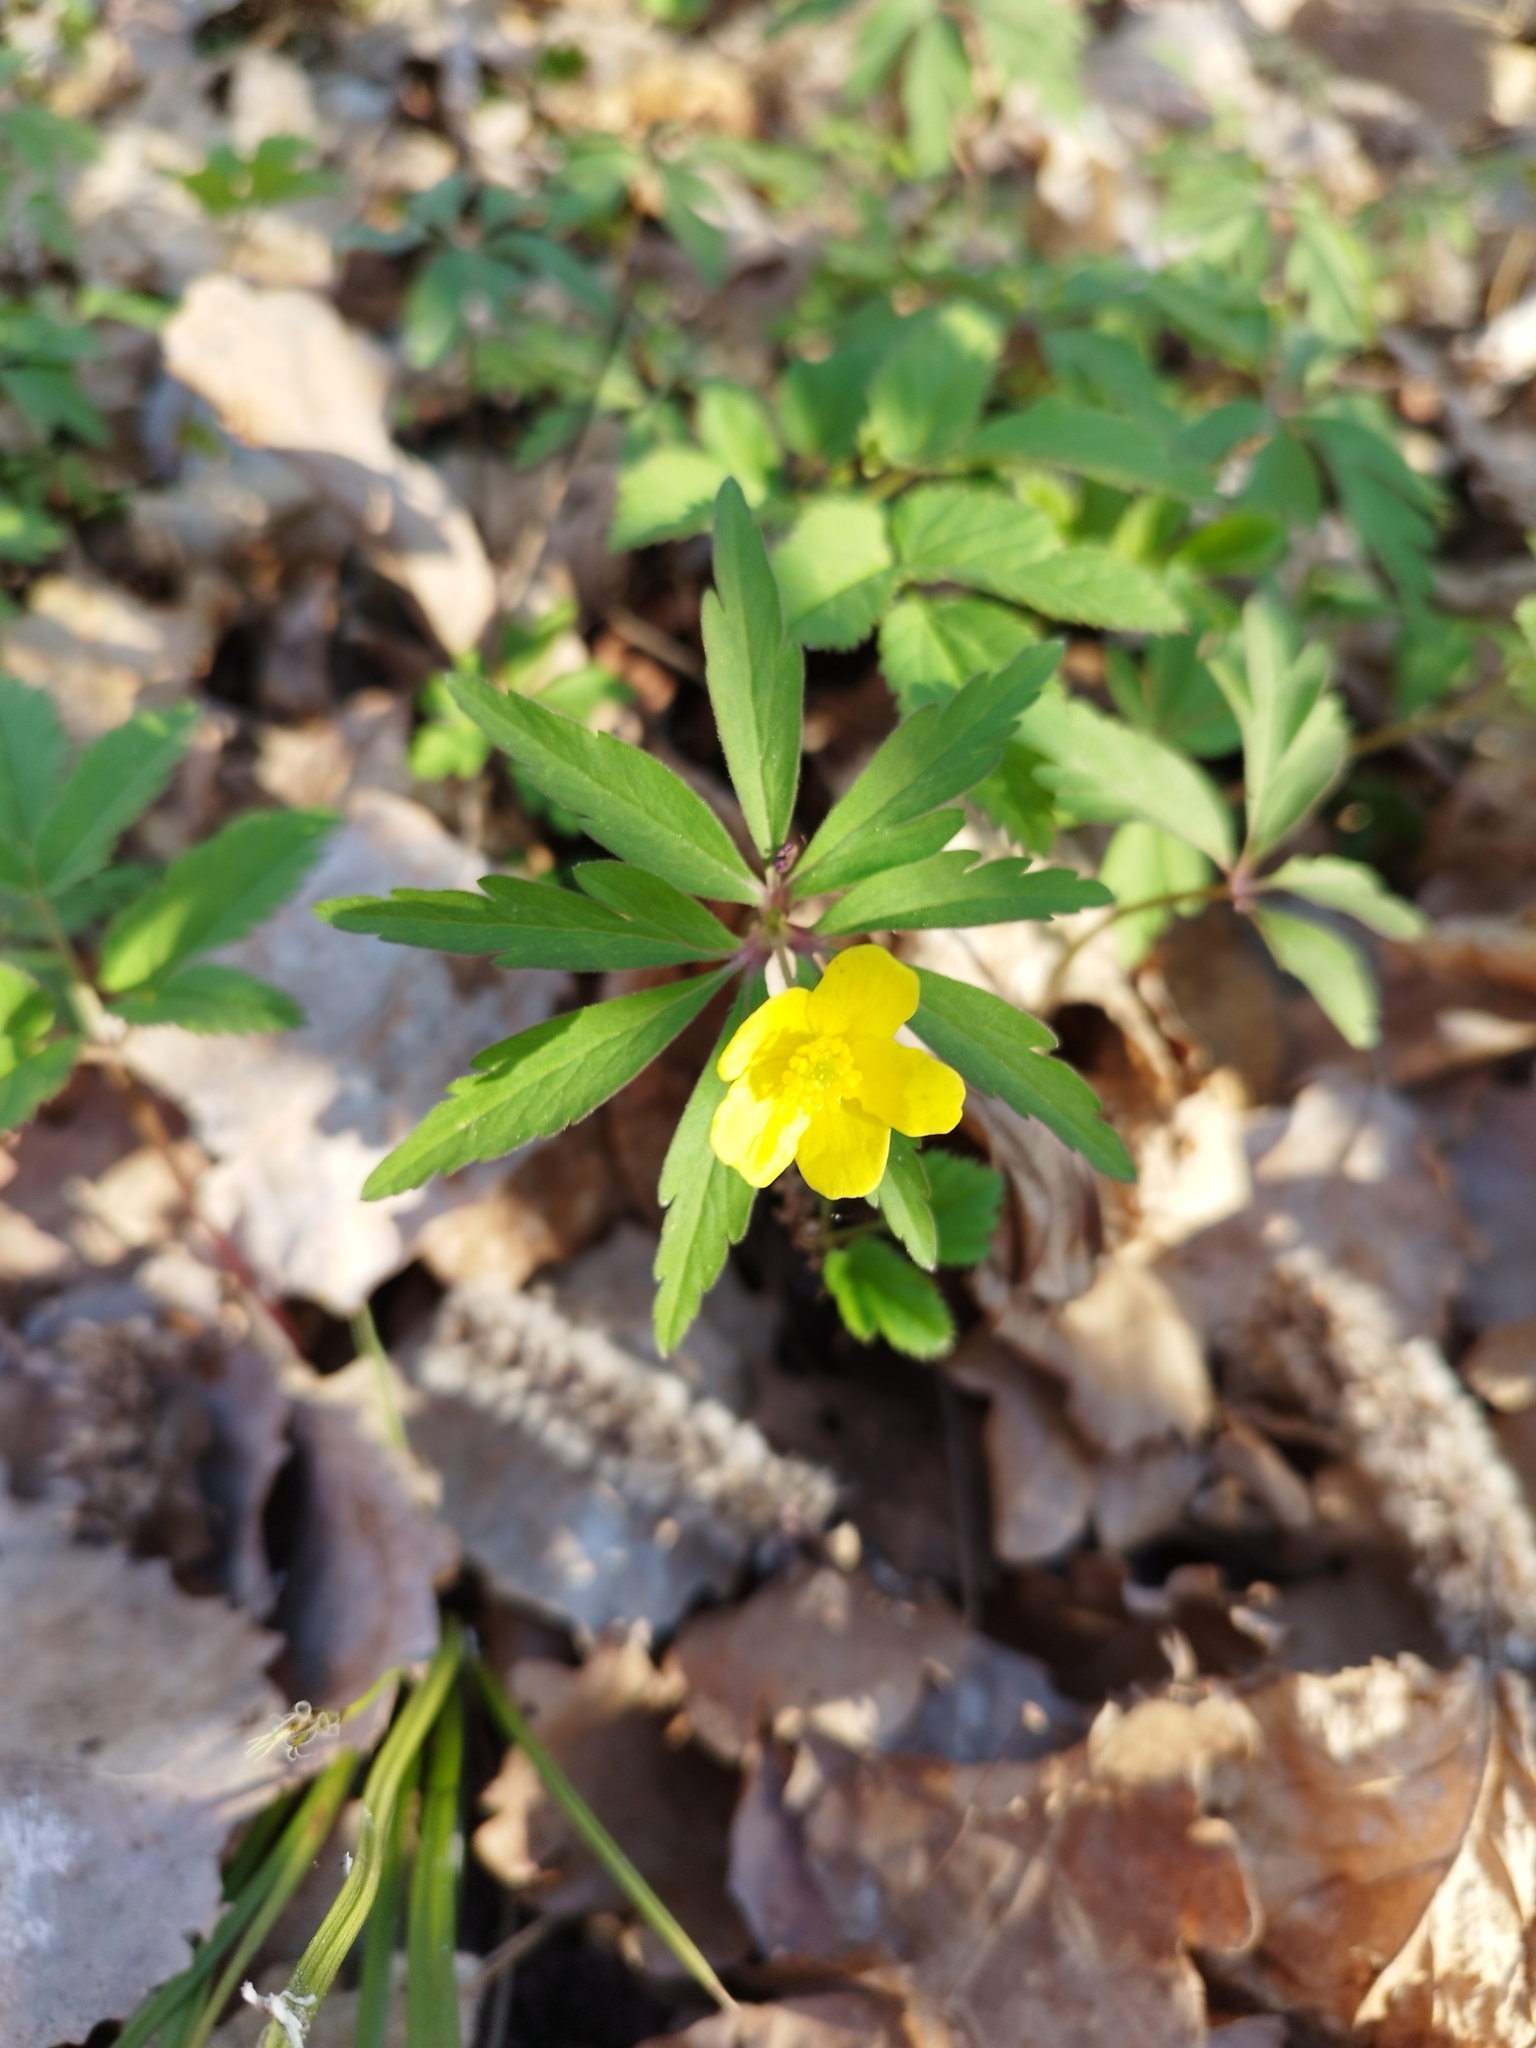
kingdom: Plantae
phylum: Tracheophyta
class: Magnoliopsida
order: Ranunculales
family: Ranunculaceae
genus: Anemone
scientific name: Anemone ranunculoides
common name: Yellow anemone
